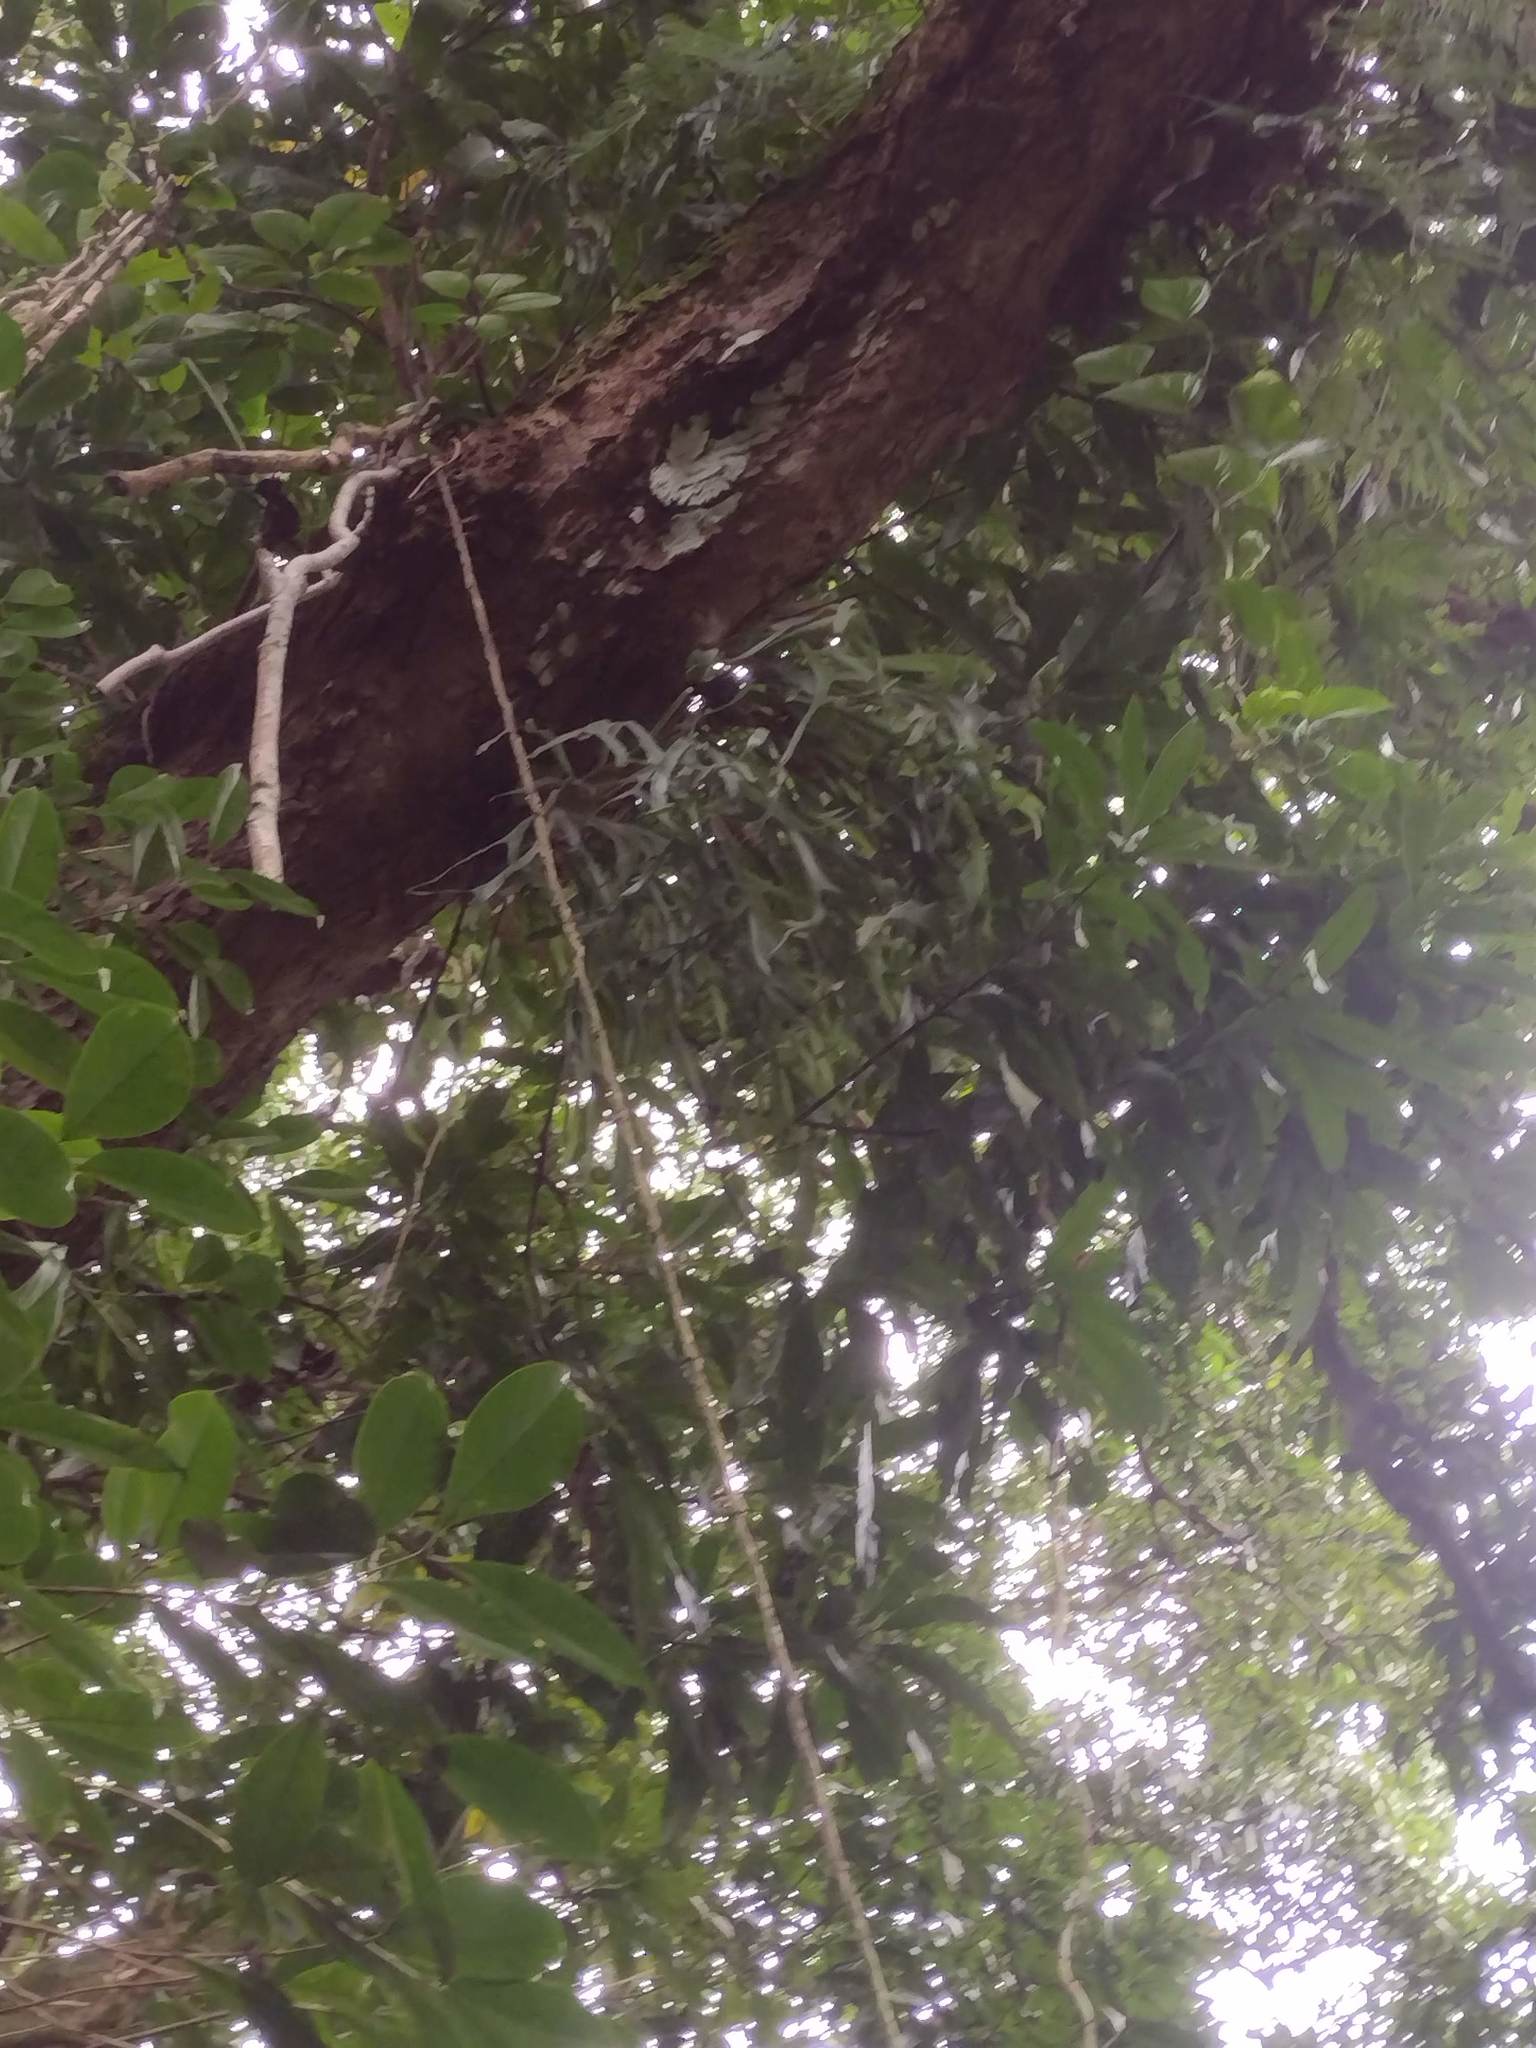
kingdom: Plantae
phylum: Tracheophyta
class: Polypodiopsida
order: Polypodiales
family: Polypodiaceae
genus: Platycerium
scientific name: Platycerium bifurcatum
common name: Elkhorn fern
